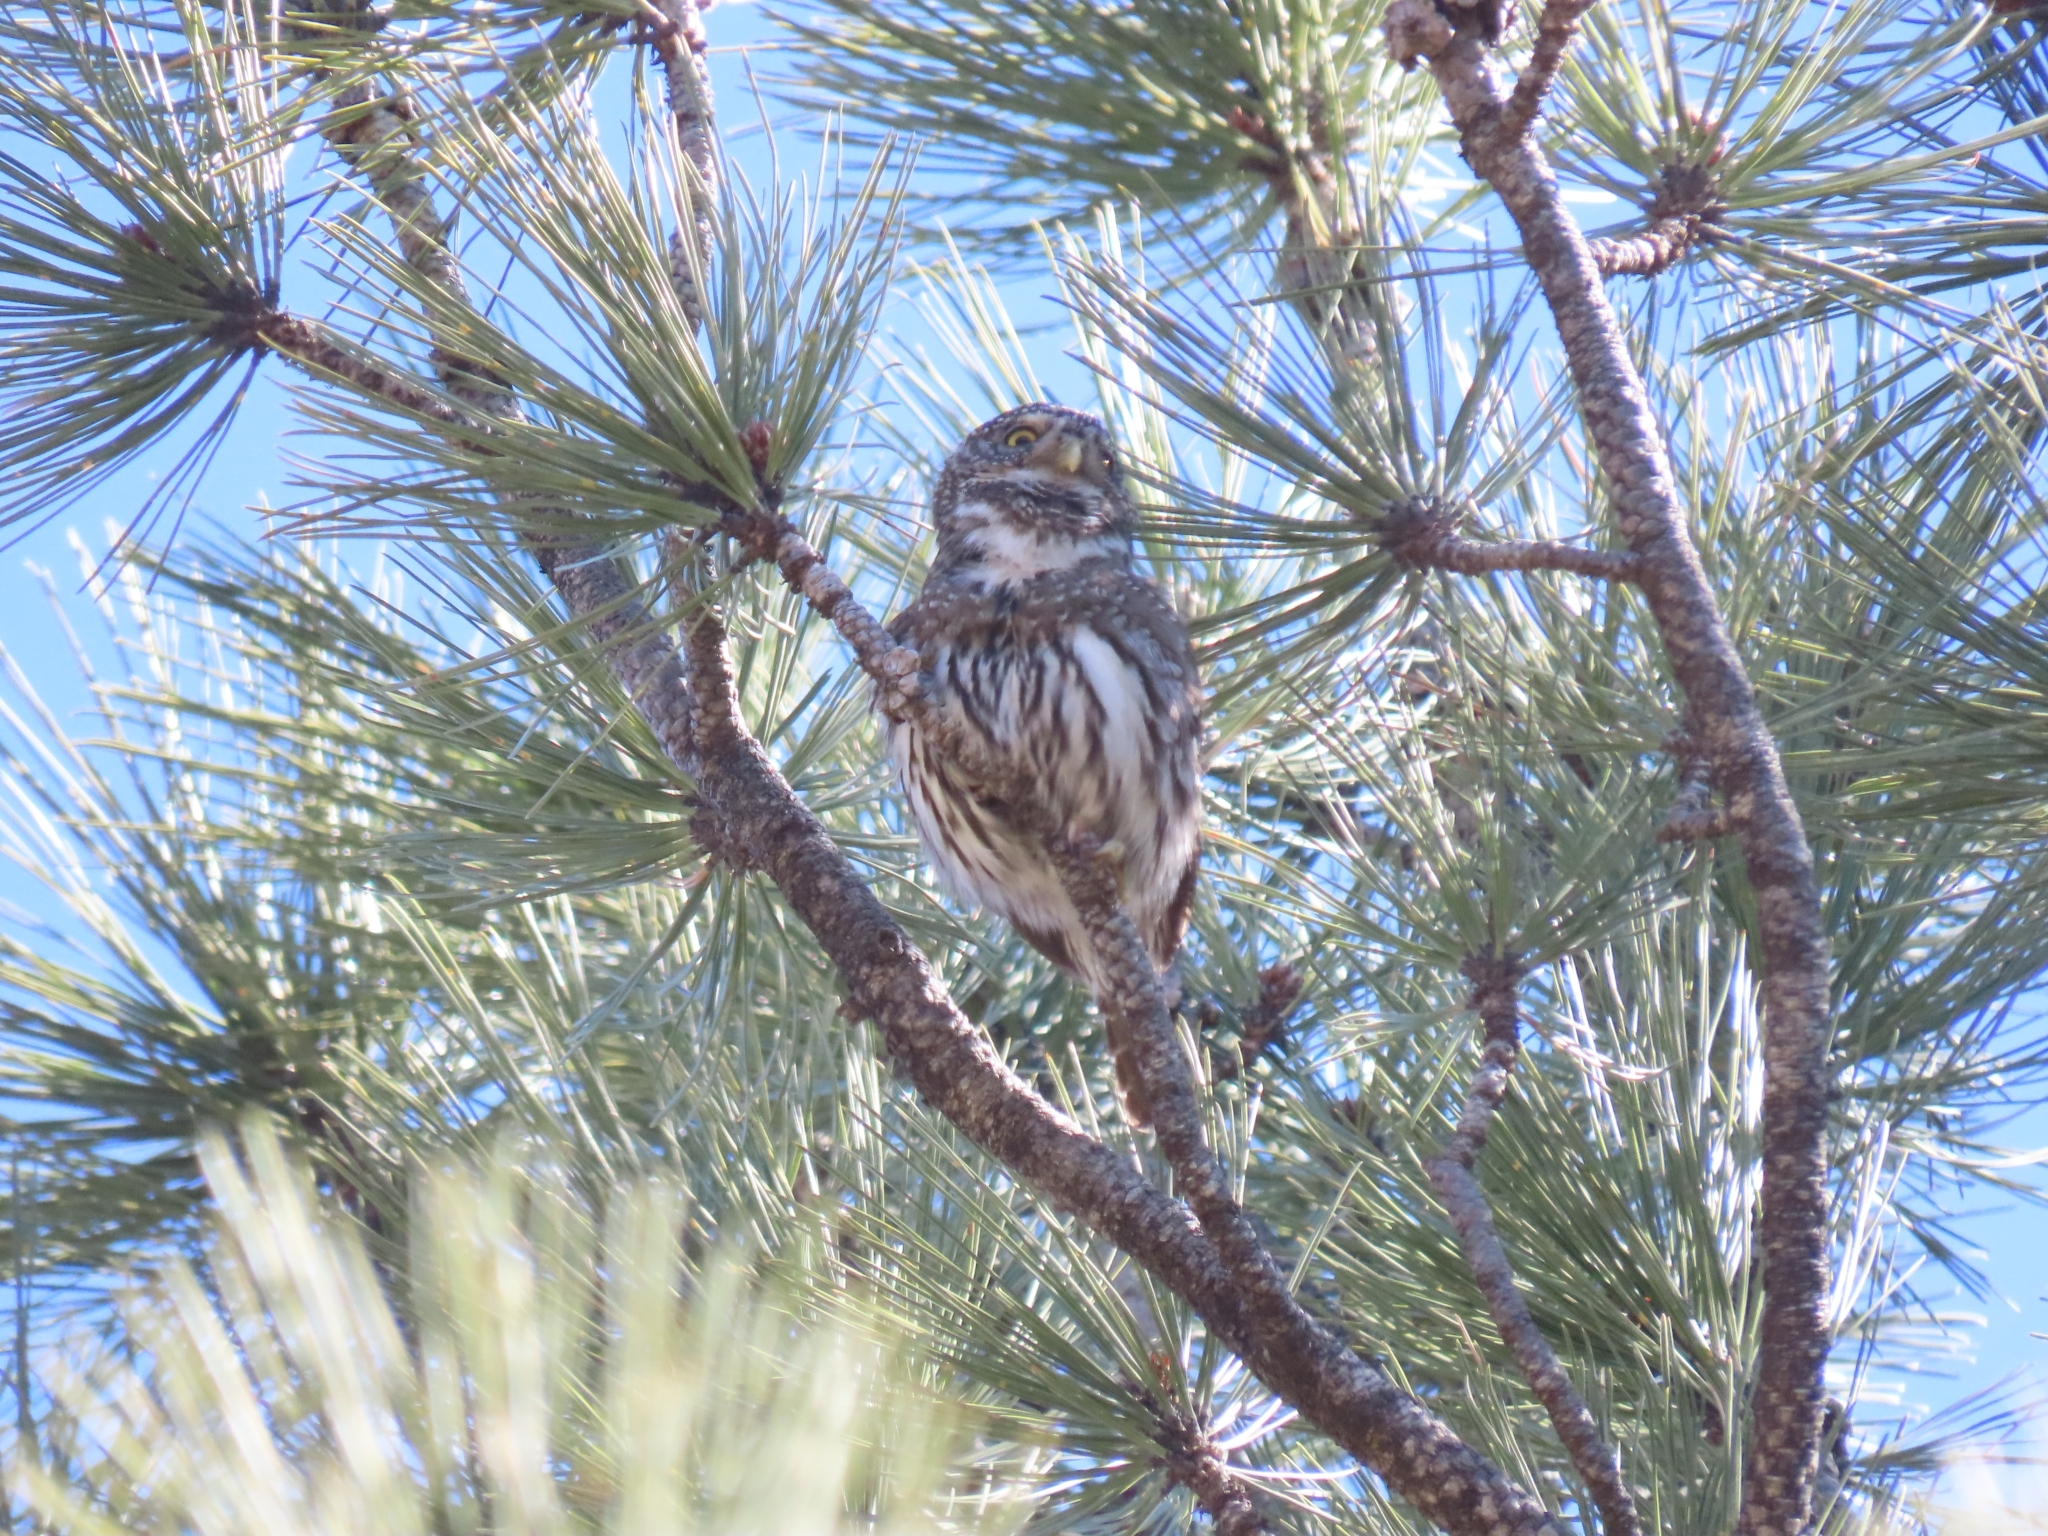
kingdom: Animalia
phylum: Chordata
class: Aves
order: Strigiformes
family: Strigidae
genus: Glaucidium
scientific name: Glaucidium gnoma
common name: Northern pygmy-owl
